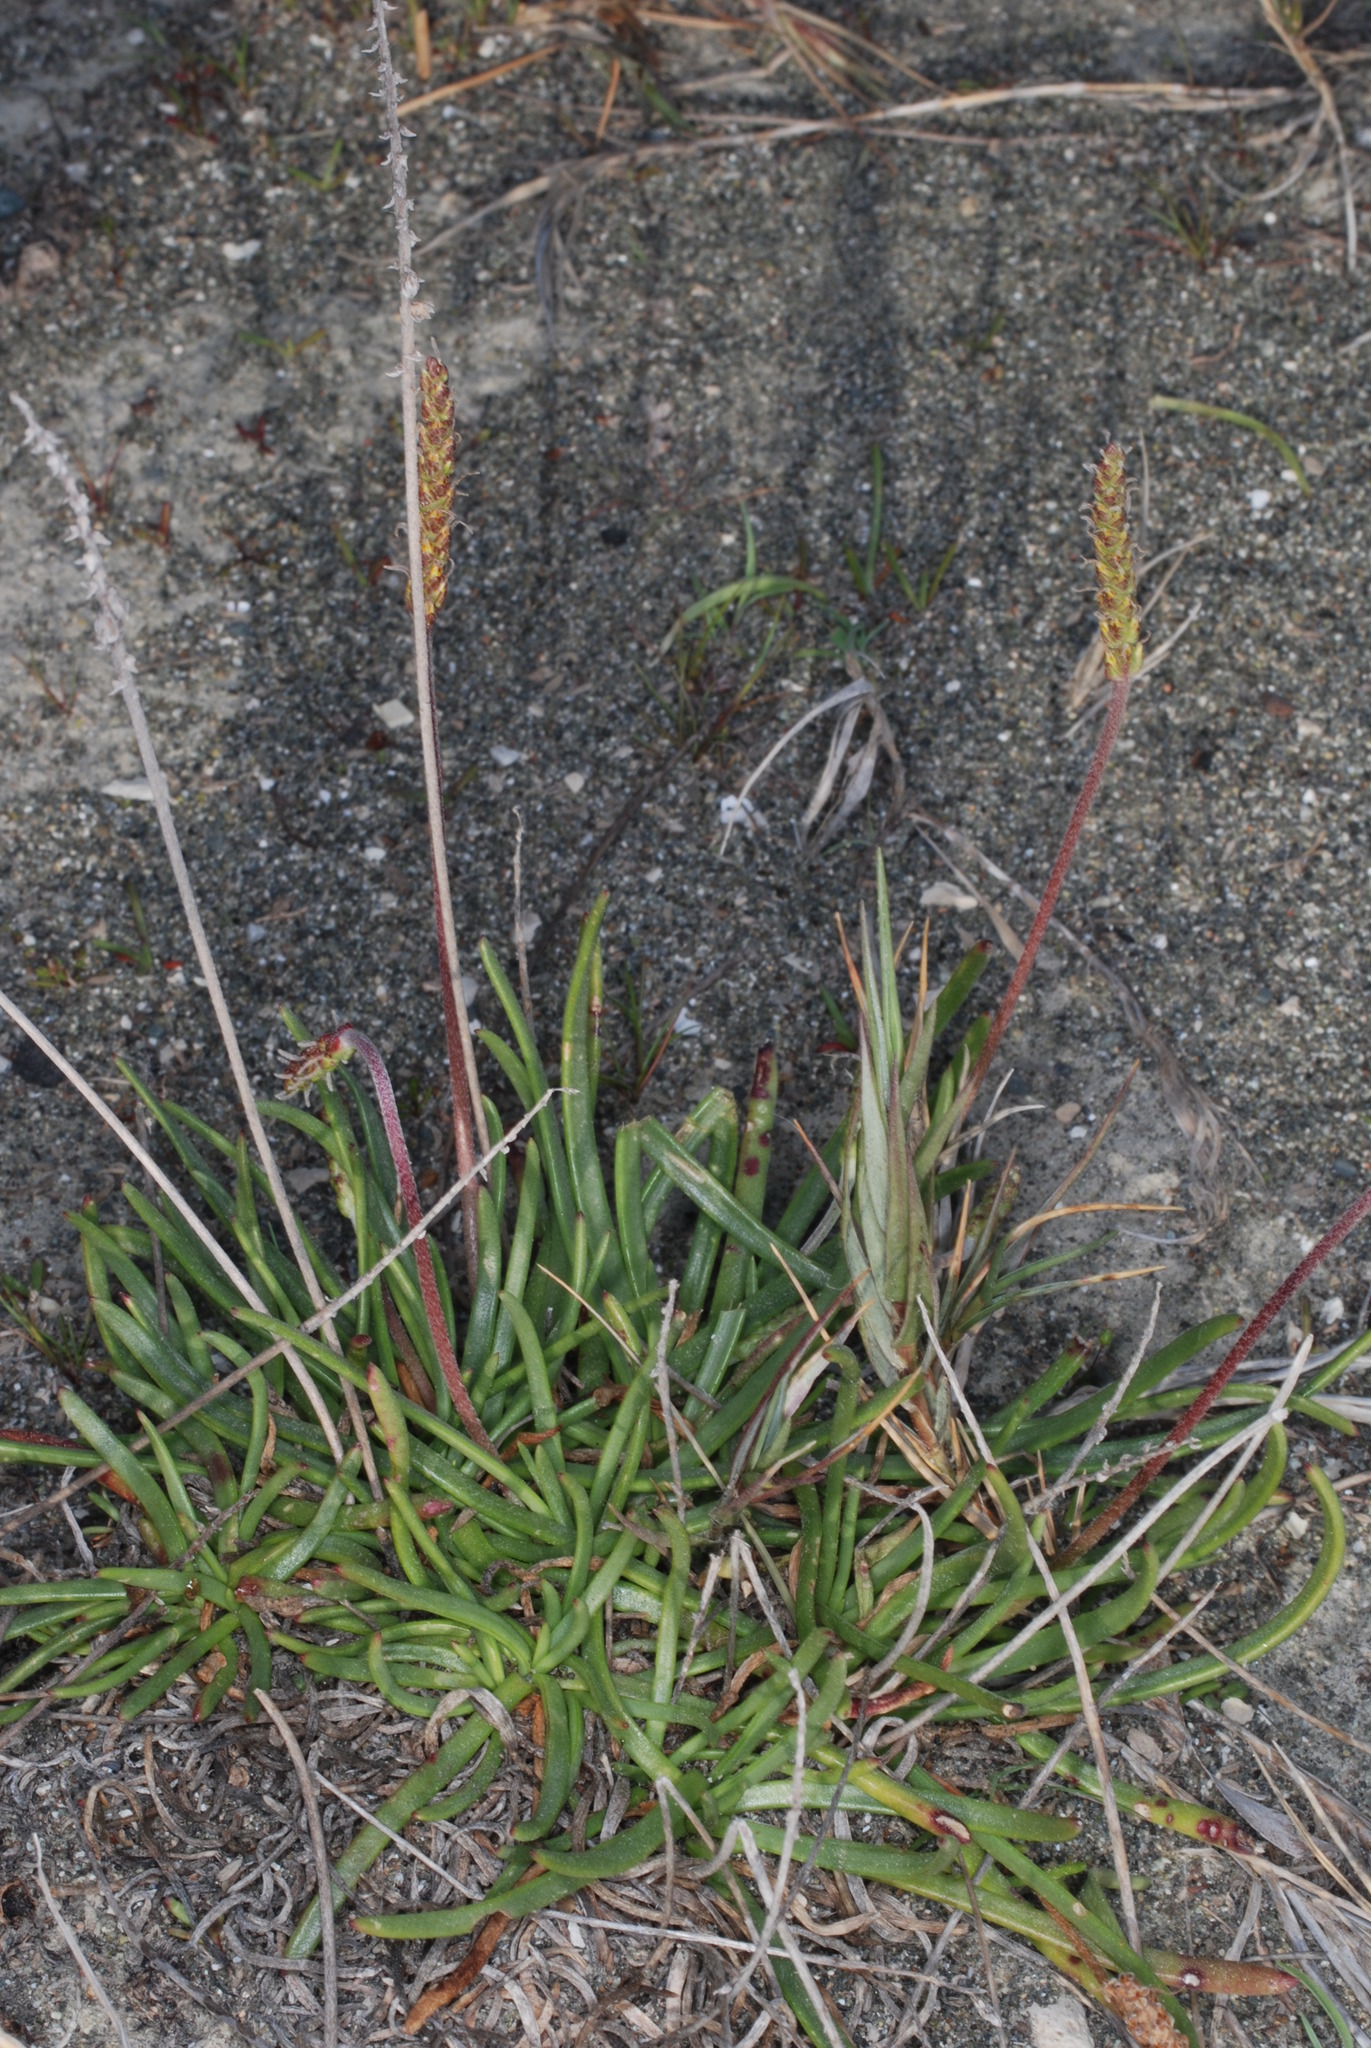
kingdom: Plantae
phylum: Tracheophyta
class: Magnoliopsida
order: Lamiales
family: Plantaginaceae
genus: Plantago
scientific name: Plantago crassifolia
